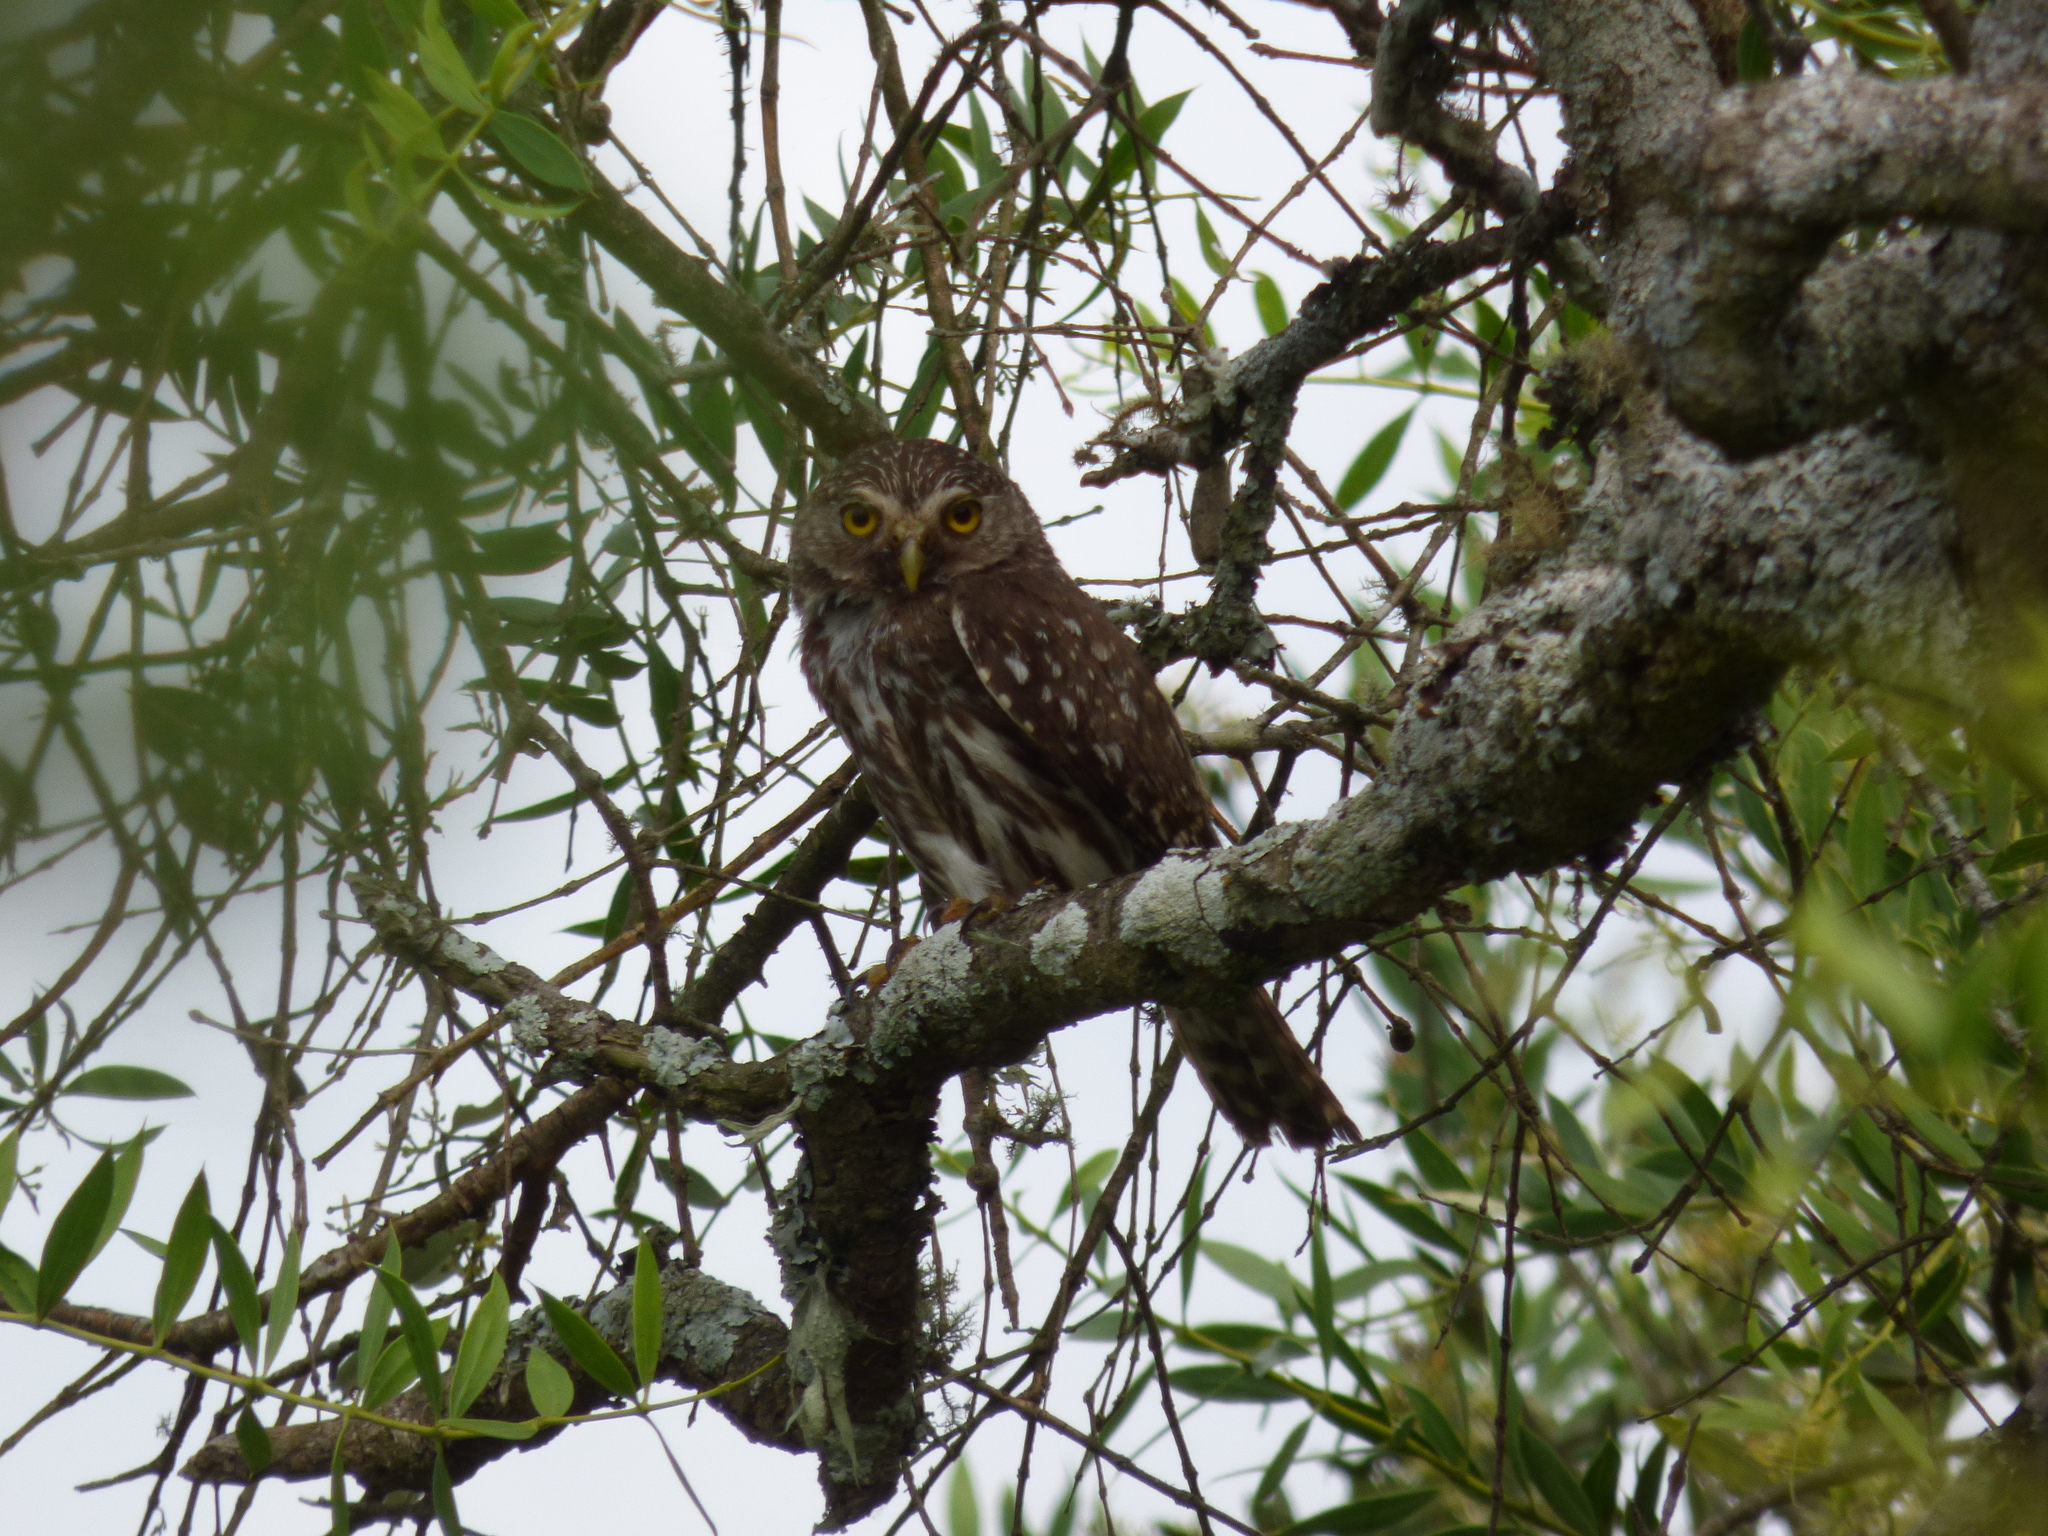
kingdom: Animalia
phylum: Chordata
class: Aves
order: Strigiformes
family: Strigidae
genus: Glaucidium
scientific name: Glaucidium brasilianum
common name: Ferruginous pygmy-owl
